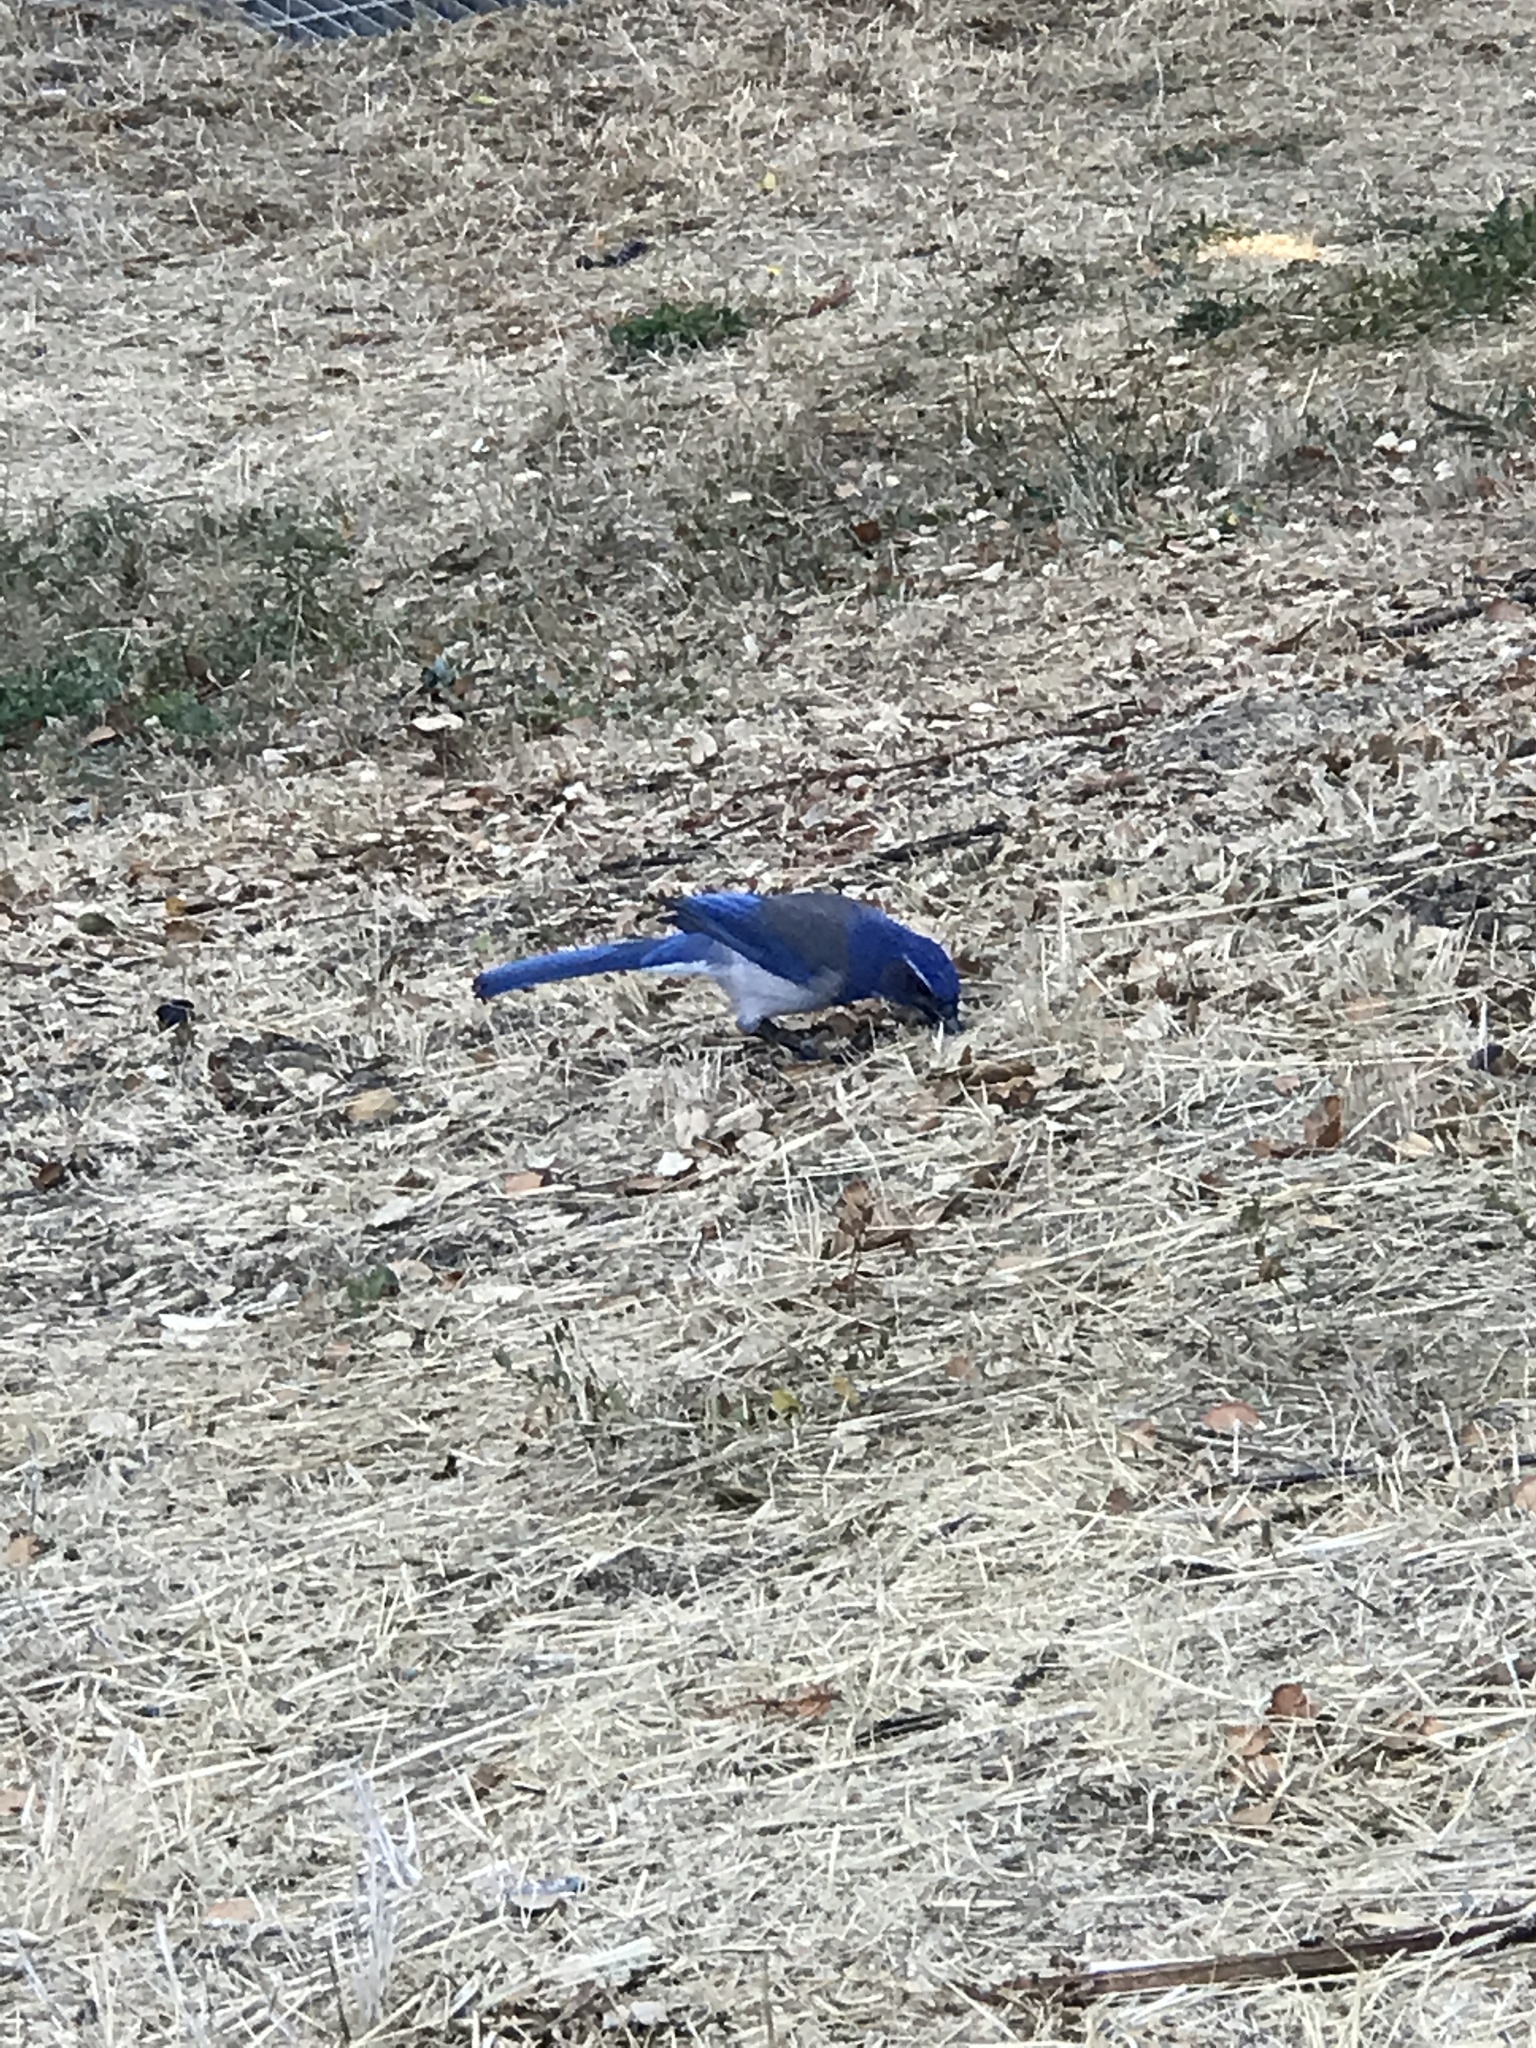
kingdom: Animalia
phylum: Chordata
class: Aves
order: Passeriformes
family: Corvidae
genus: Aphelocoma
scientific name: Aphelocoma californica
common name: California scrub-jay
